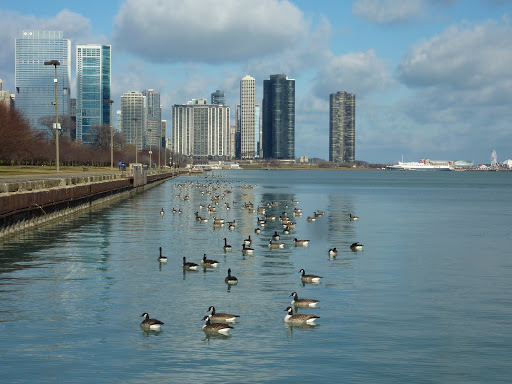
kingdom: Animalia
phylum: Chordata
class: Aves
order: Anseriformes
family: Anatidae
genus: Branta
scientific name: Branta canadensis
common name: Canada goose
